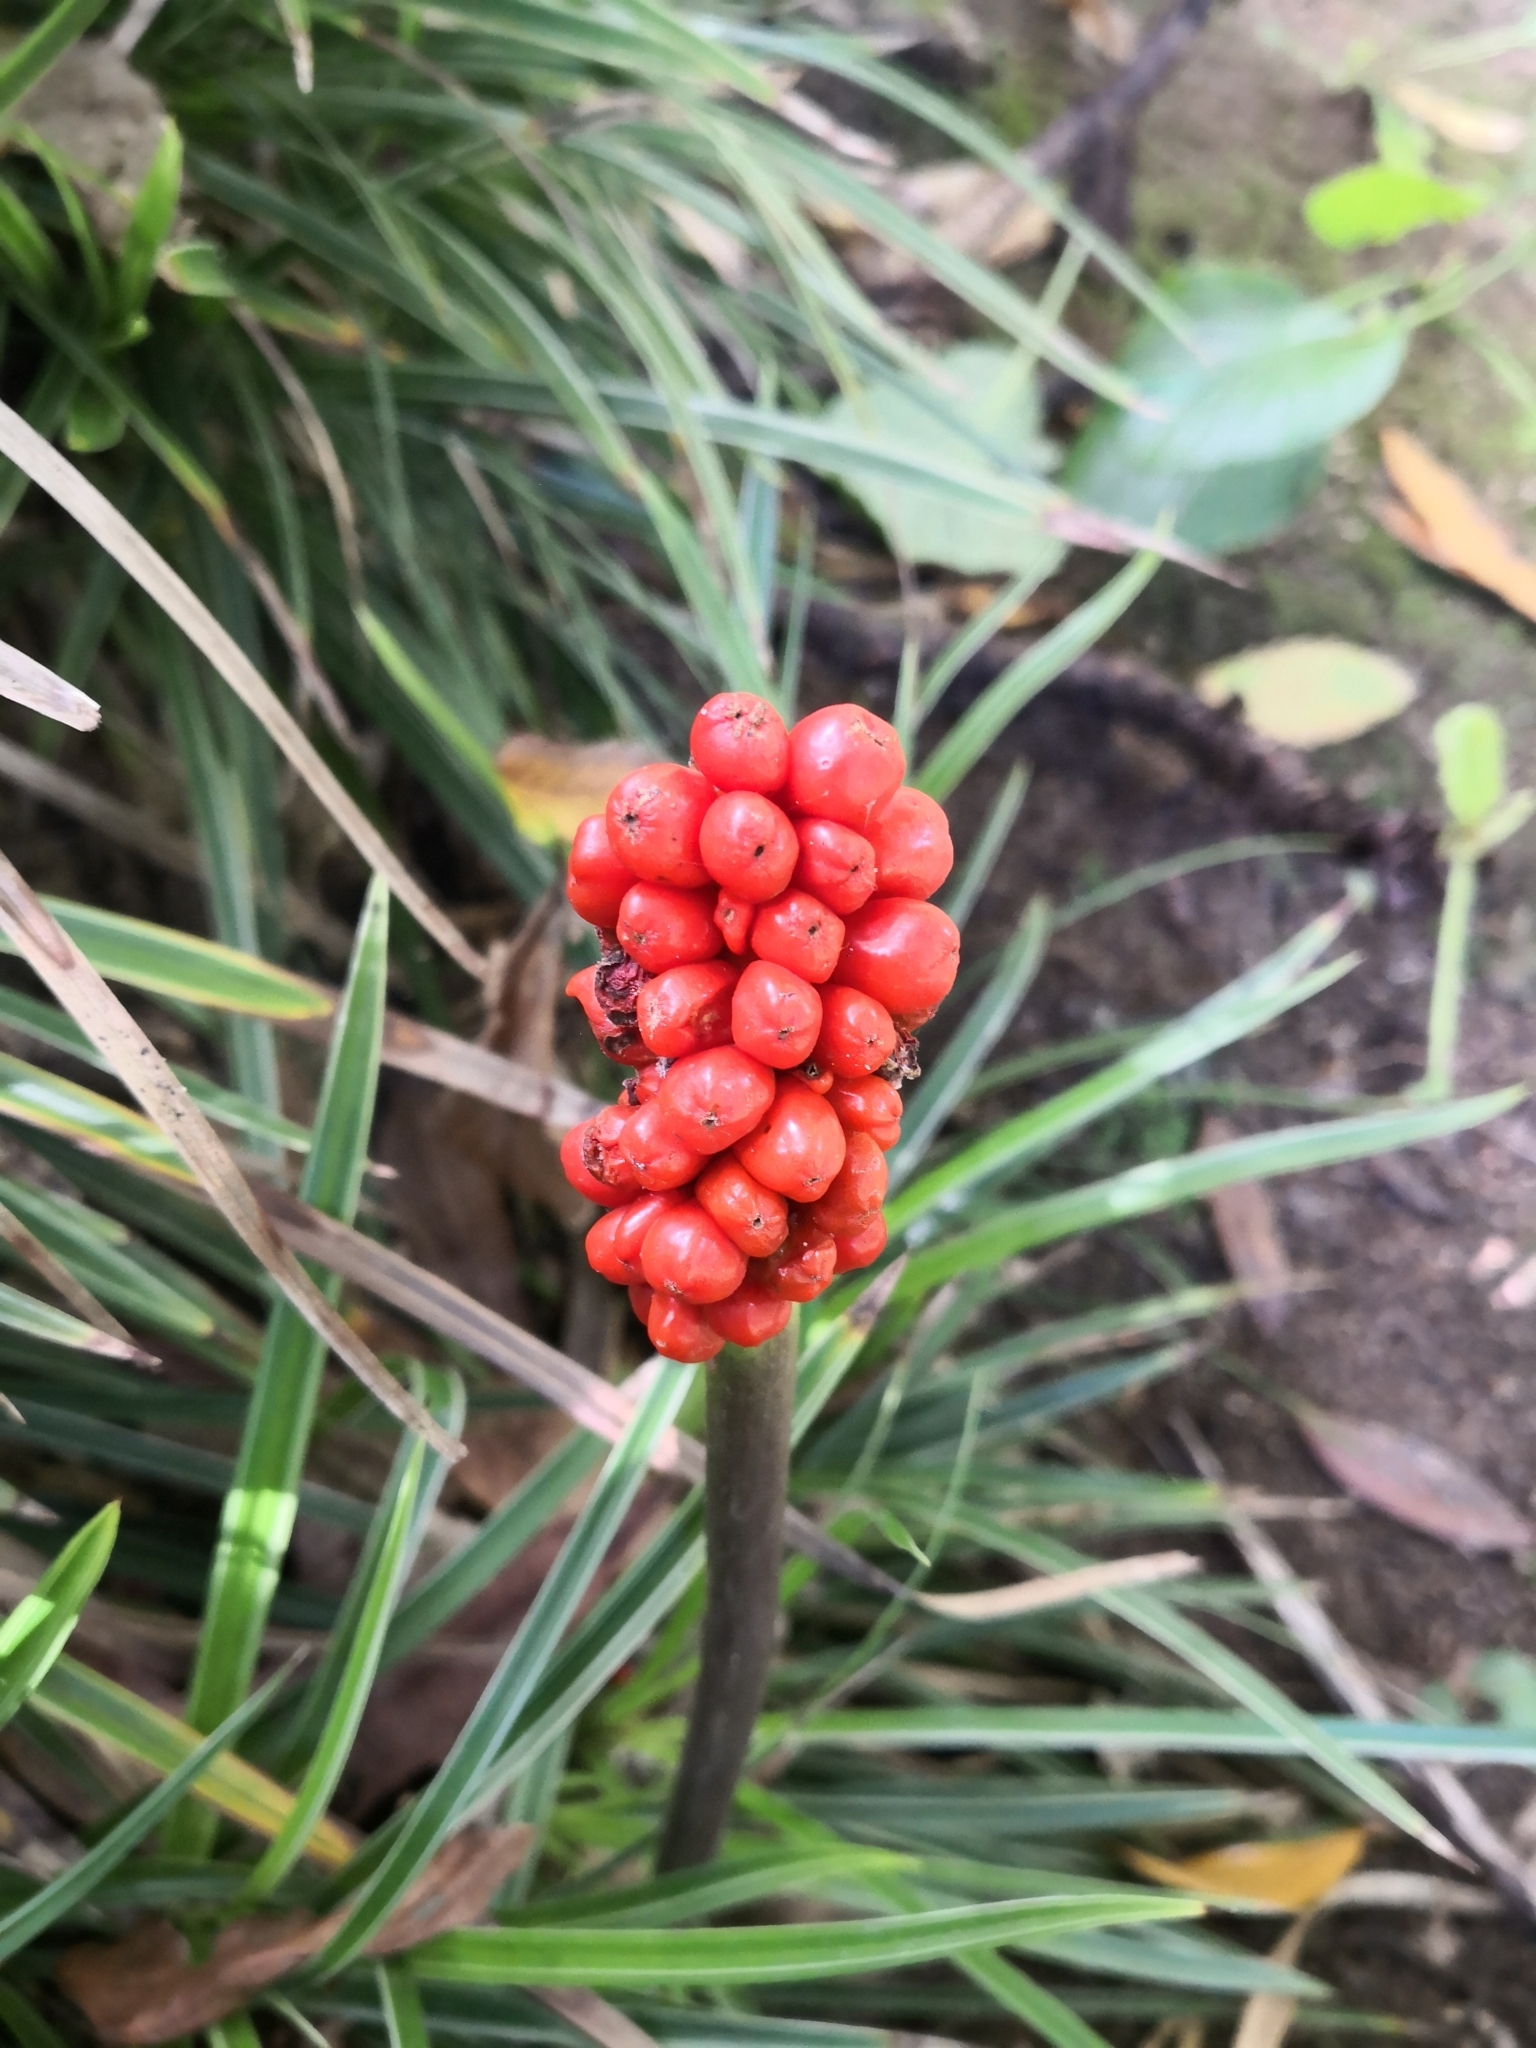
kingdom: Plantae
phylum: Tracheophyta
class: Liliopsida
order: Alismatales
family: Araceae
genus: Arum
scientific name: Arum italicum
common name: Italian lords-and-ladies
